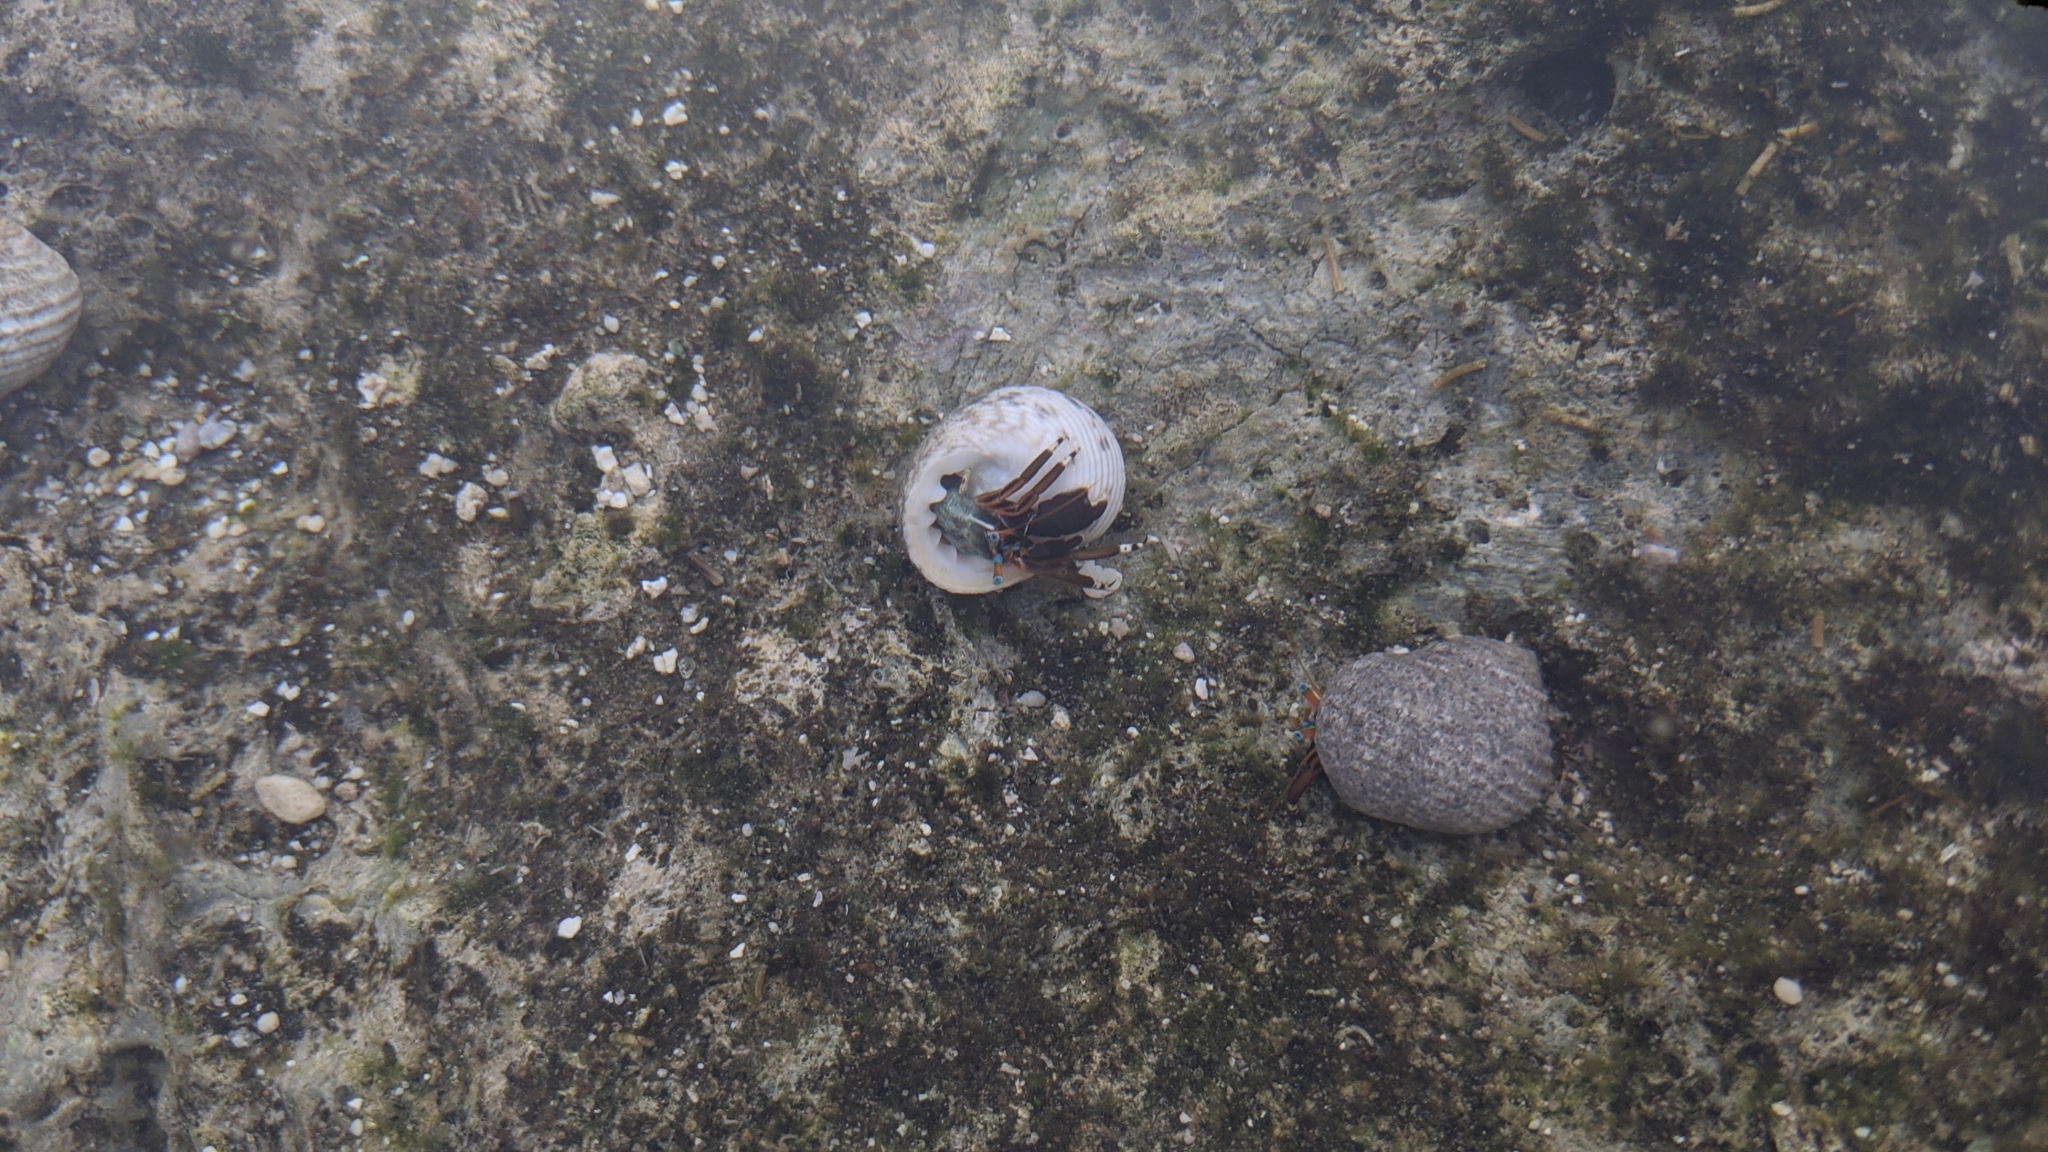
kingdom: Animalia
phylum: Arthropoda
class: Malacostraca
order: Decapoda
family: Diogenidae
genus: Calcinus
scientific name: Calcinus laevimanus
